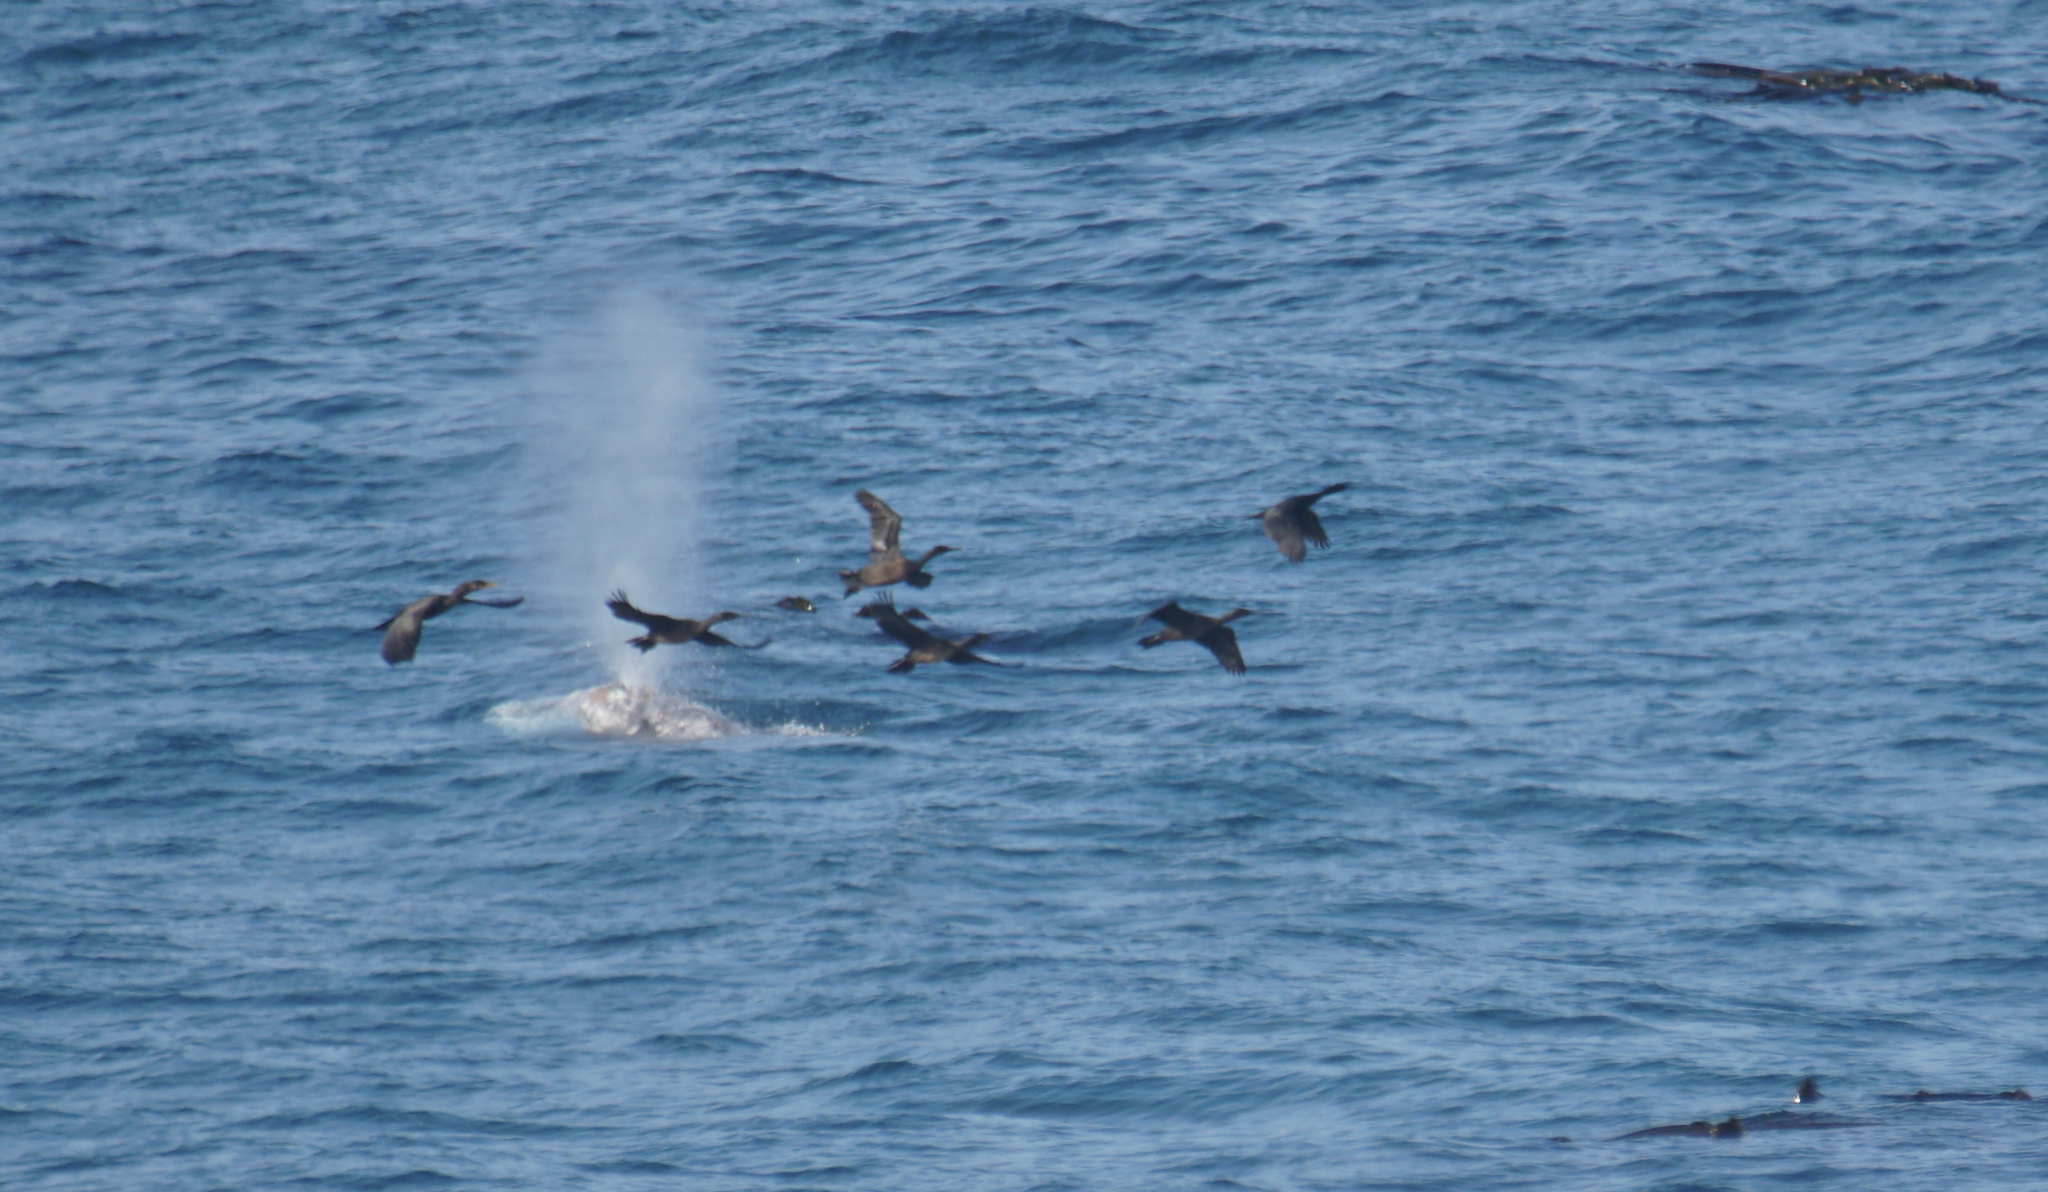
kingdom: Animalia
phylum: Chordata
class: Mammalia
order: Cetacea
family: Eschrichtiidae
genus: Eschrichtius
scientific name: Eschrichtius robustus
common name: Gray whale
